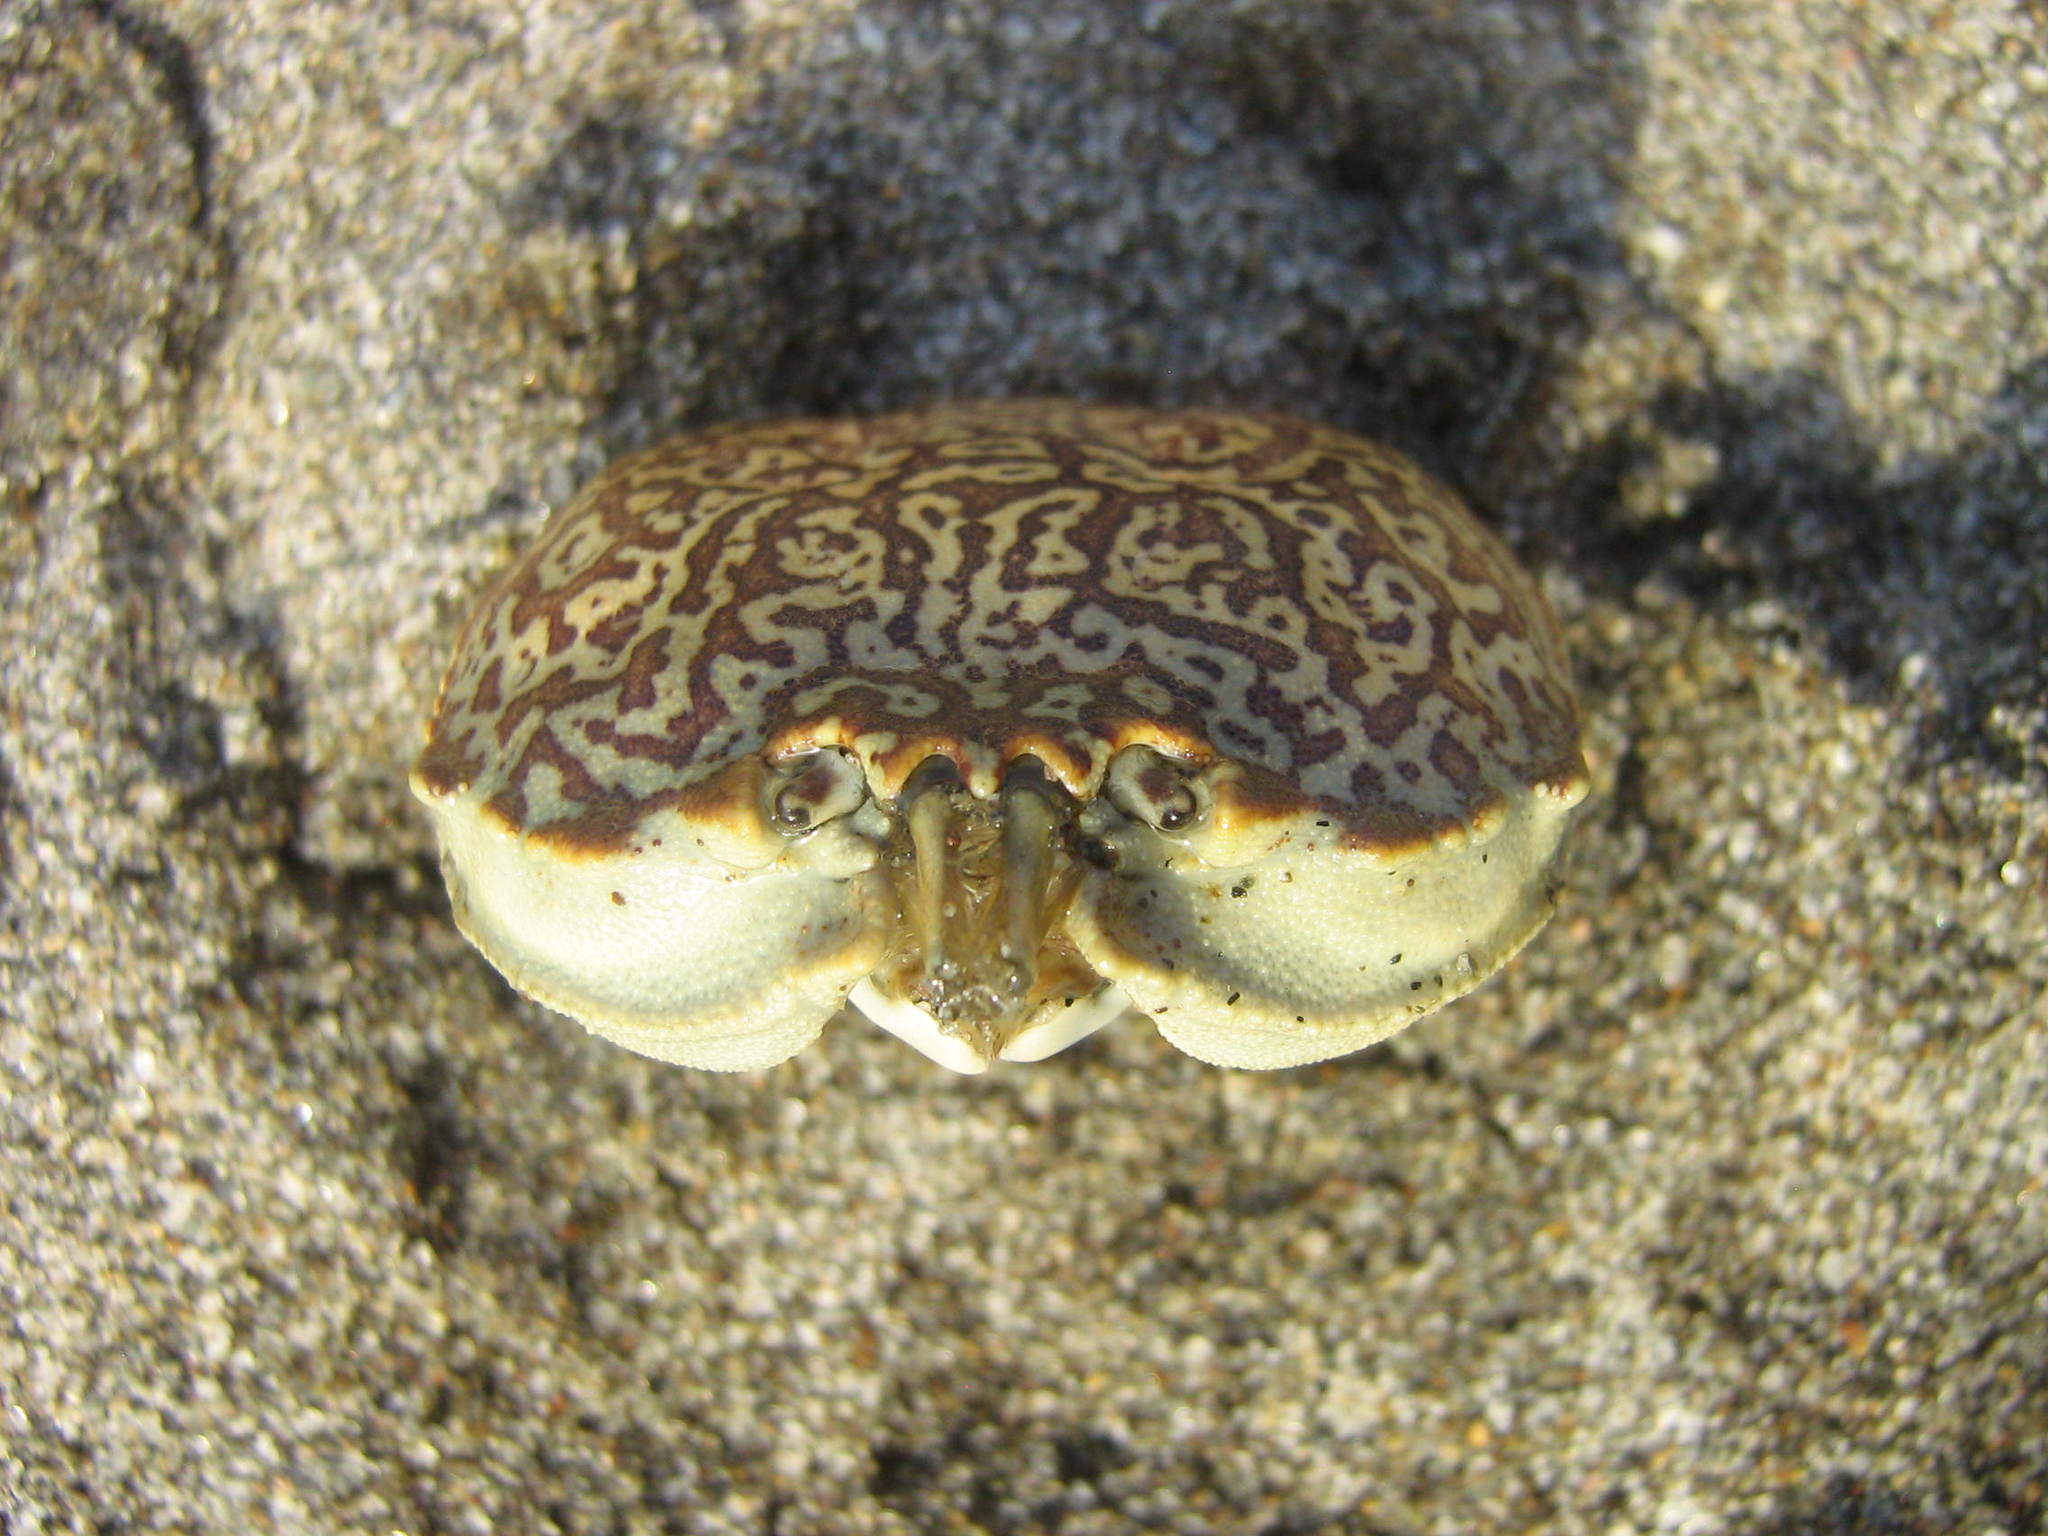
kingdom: Animalia
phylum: Arthropoda
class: Malacostraca
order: Decapoda
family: Belliidae
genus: Bellia
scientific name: Bellia picta
